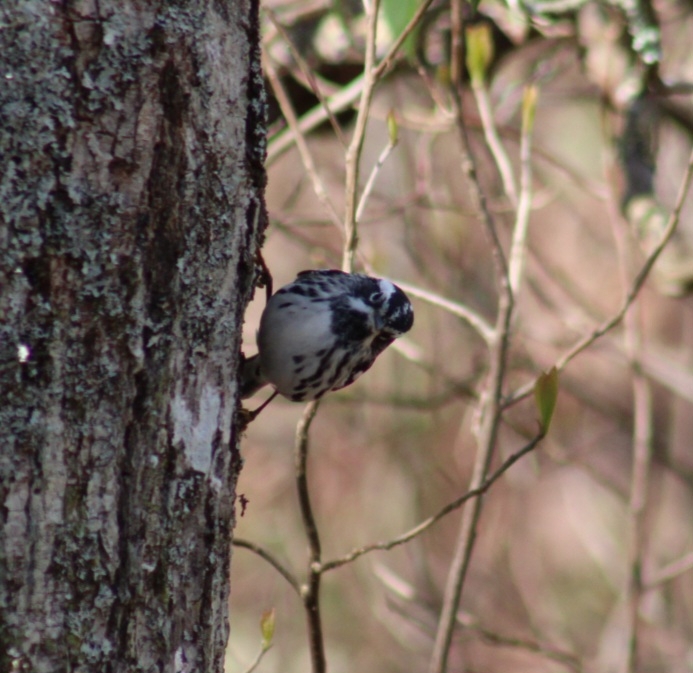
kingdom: Animalia
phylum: Chordata
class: Aves
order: Passeriformes
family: Parulidae
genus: Mniotilta
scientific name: Mniotilta varia
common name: Black-and-white warbler
